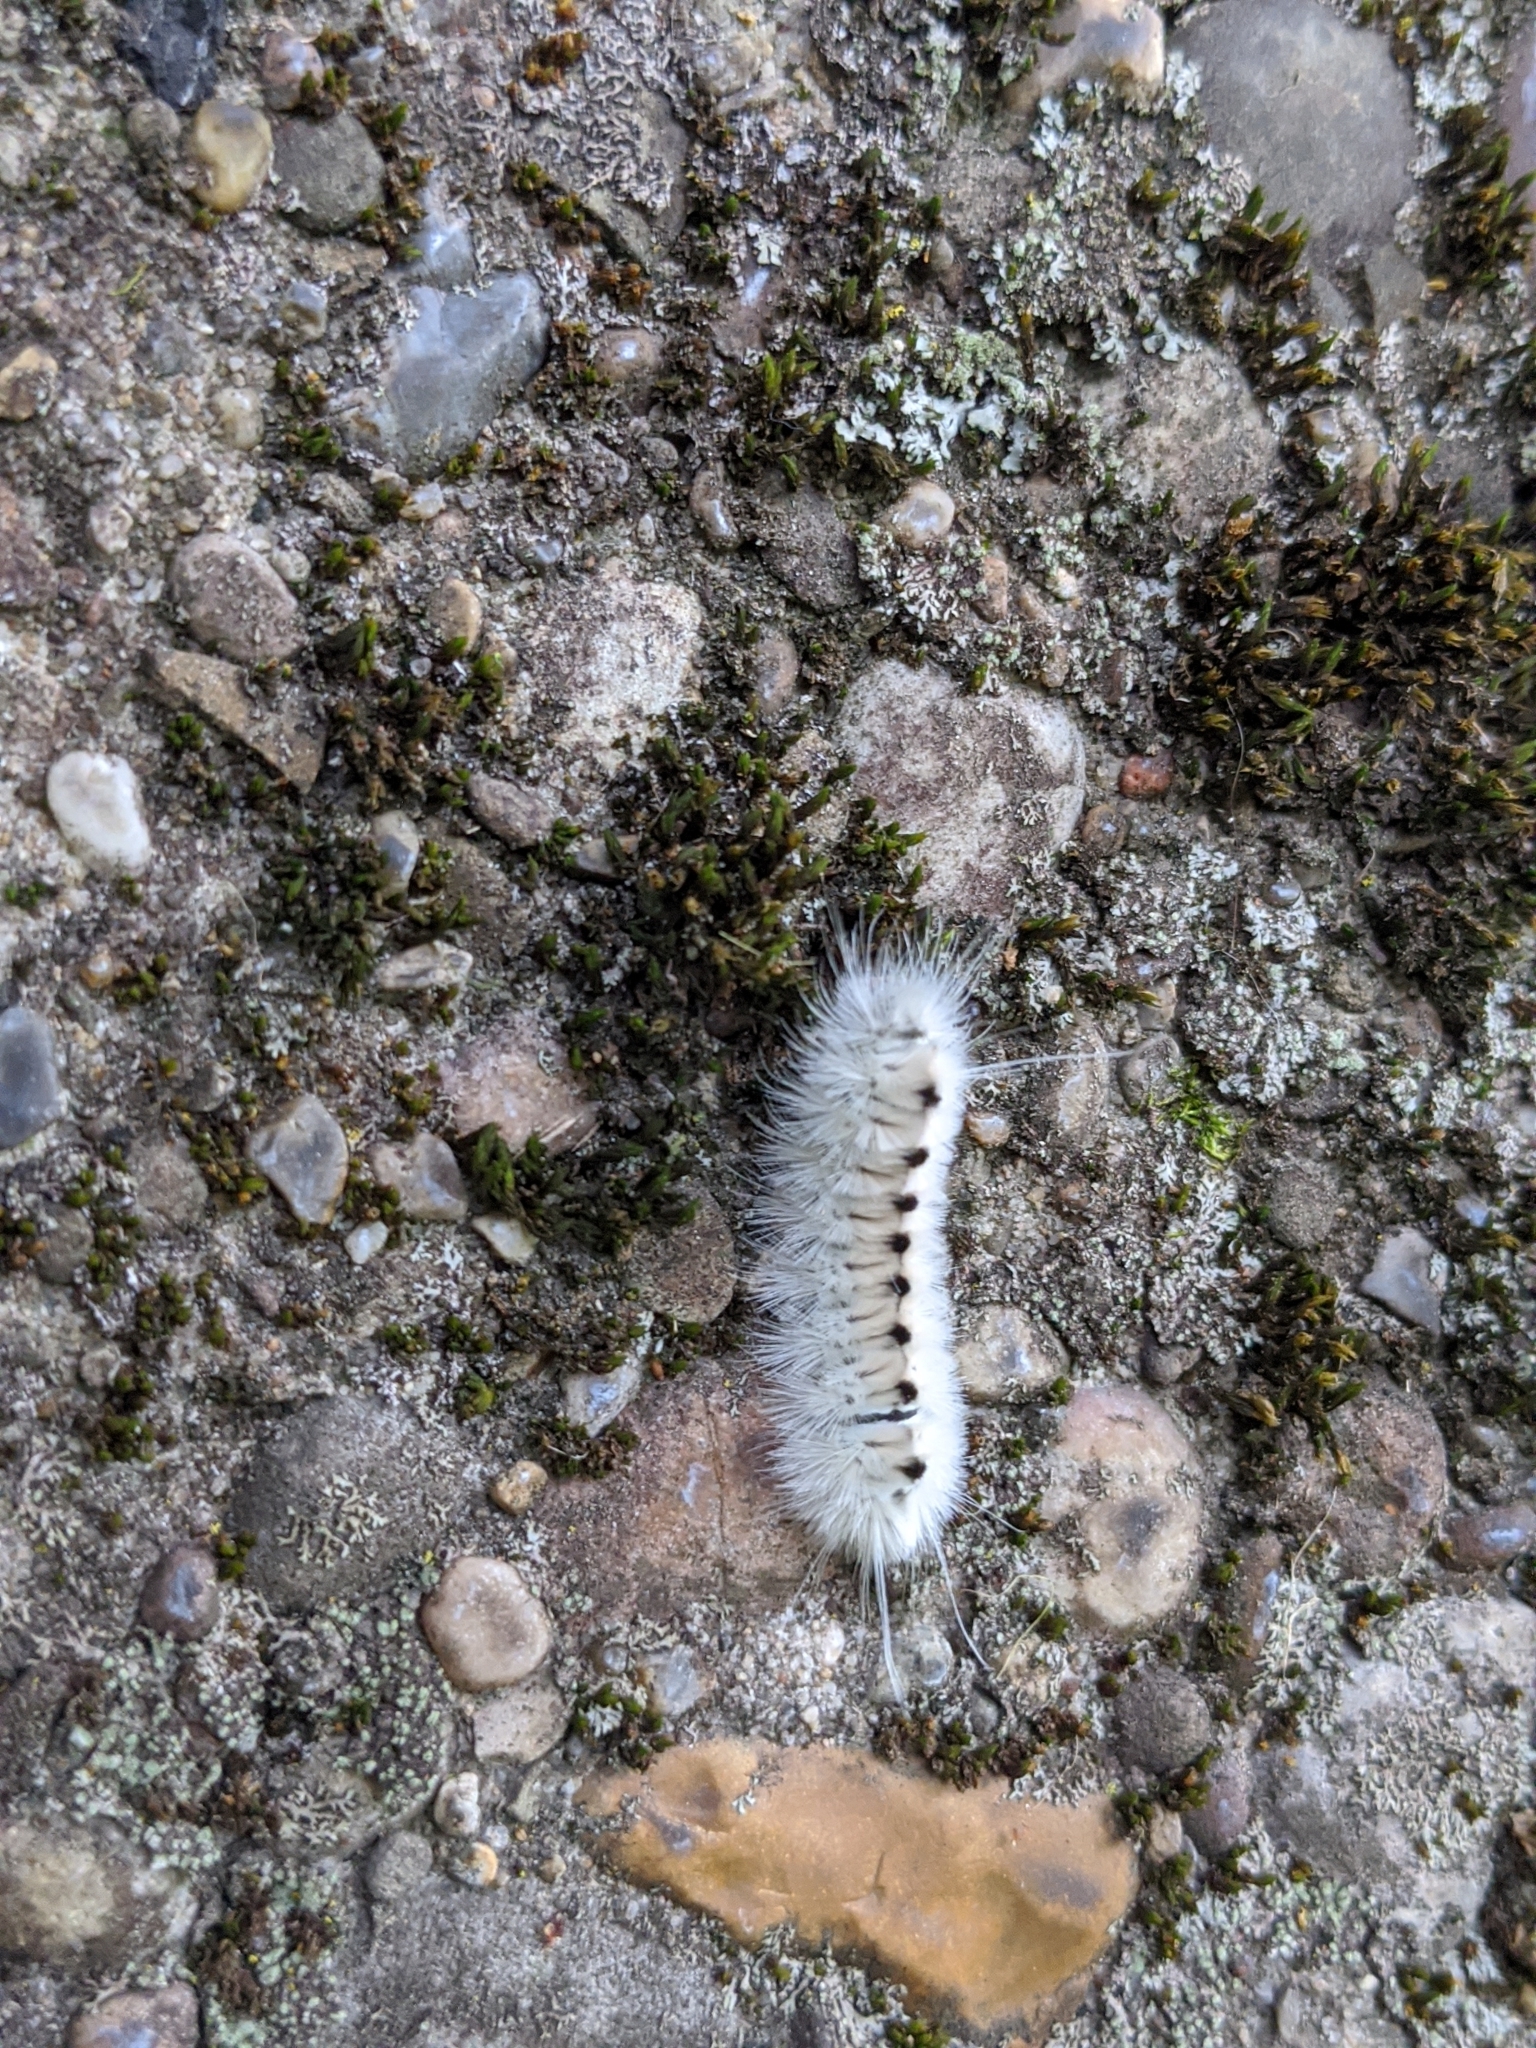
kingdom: Animalia
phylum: Arthropoda
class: Insecta
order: Lepidoptera
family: Erebidae
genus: Lophocampa
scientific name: Lophocampa caryae
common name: Hickory tussock moth
